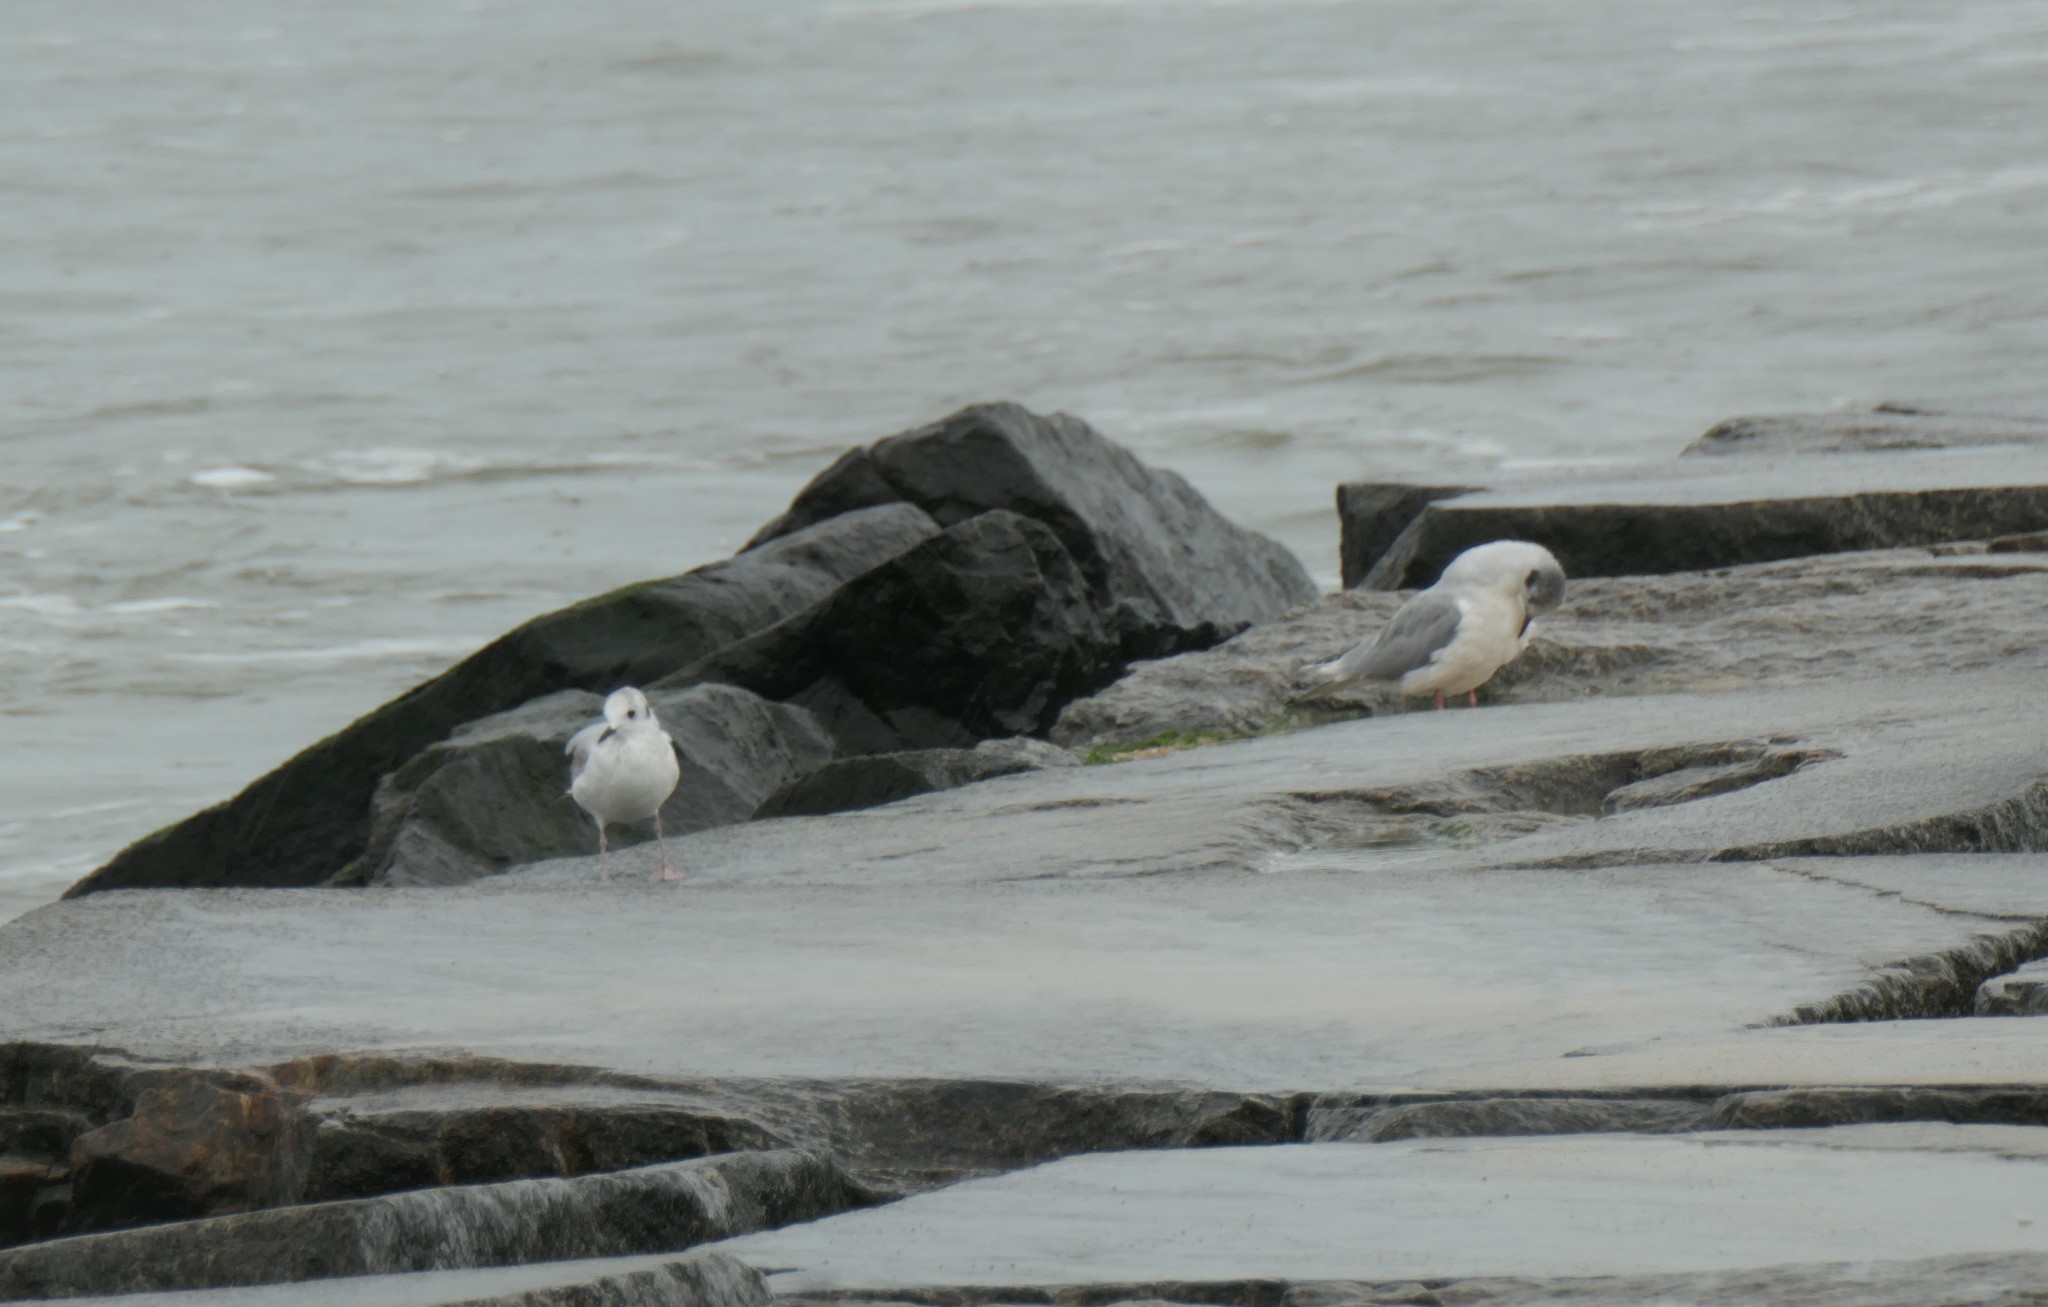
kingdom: Animalia
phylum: Chordata
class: Aves
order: Charadriiformes
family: Laridae
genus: Chroicocephalus
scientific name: Chroicocephalus philadelphia
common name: Bonaparte's gull
